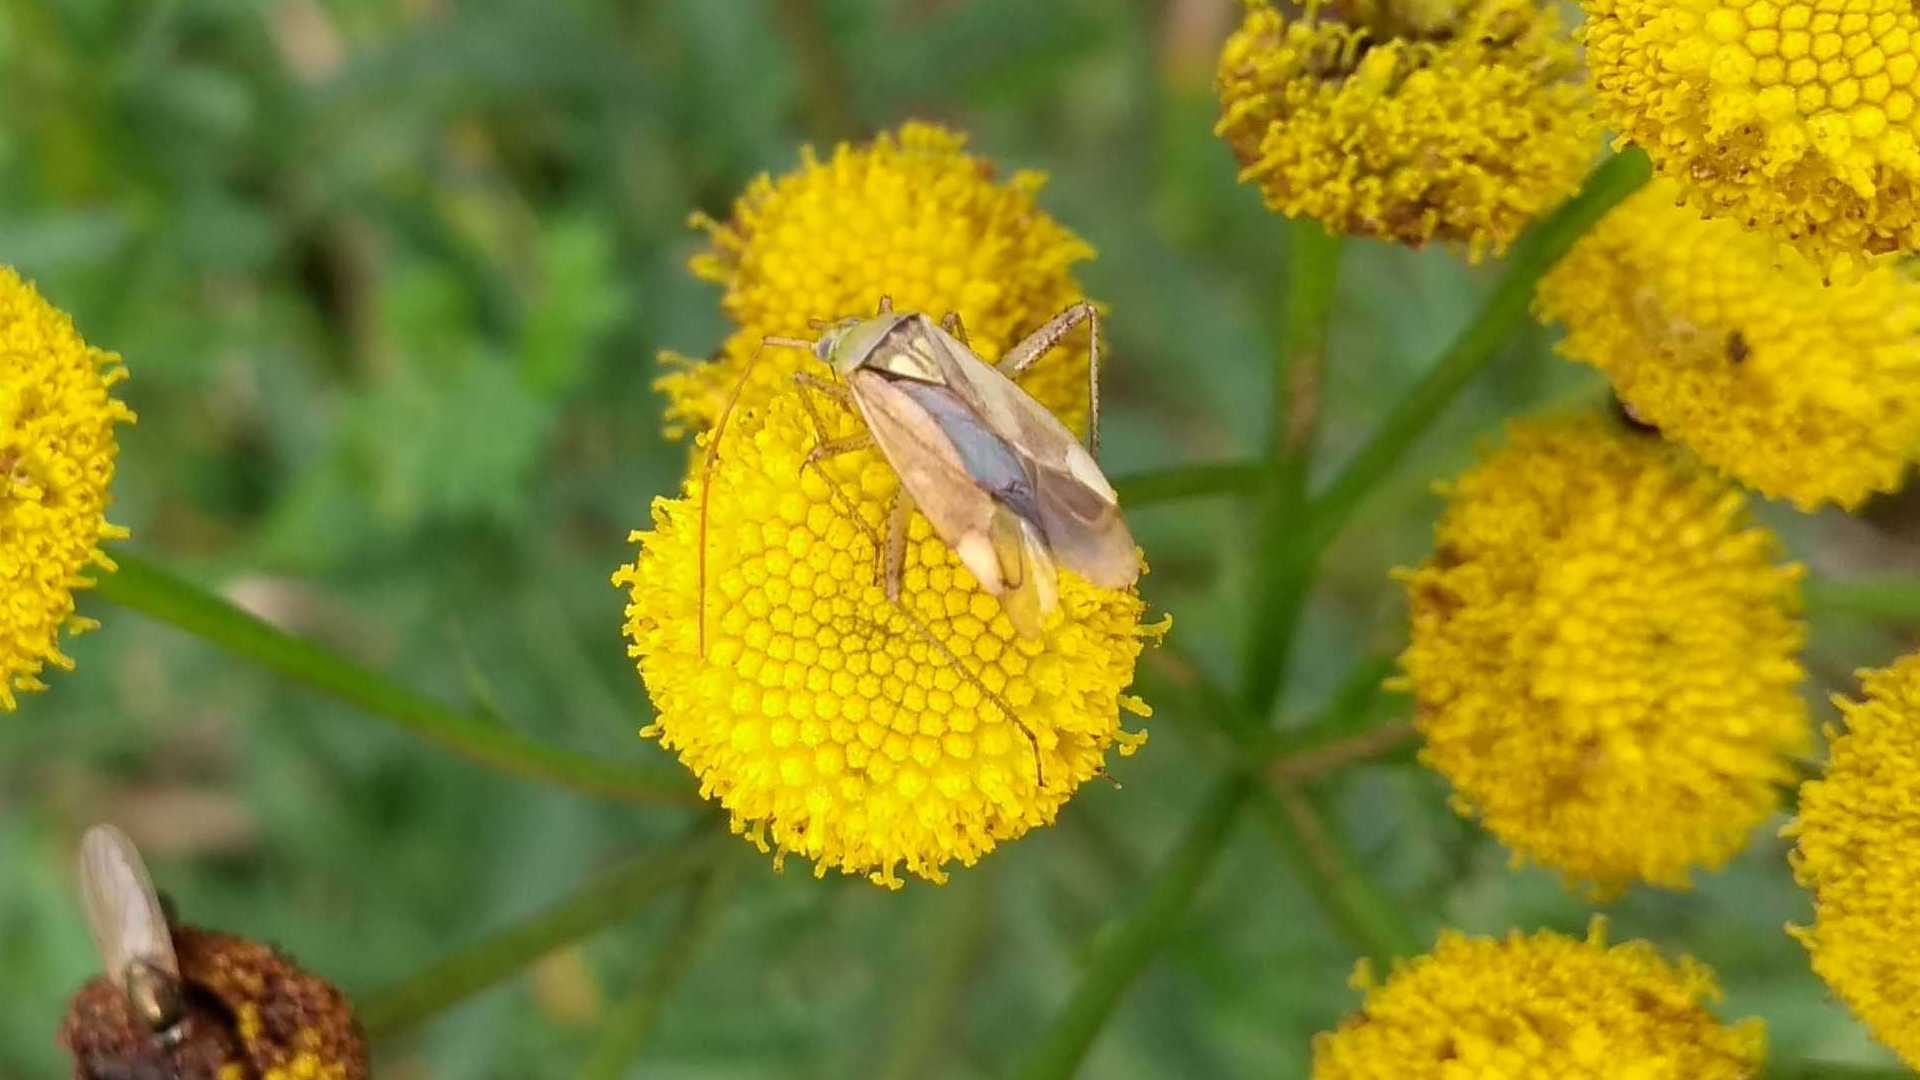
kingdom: Animalia
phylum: Arthropoda
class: Insecta
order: Hemiptera
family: Miridae
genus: Adelphocoris
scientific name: Adelphocoris lineolatus
